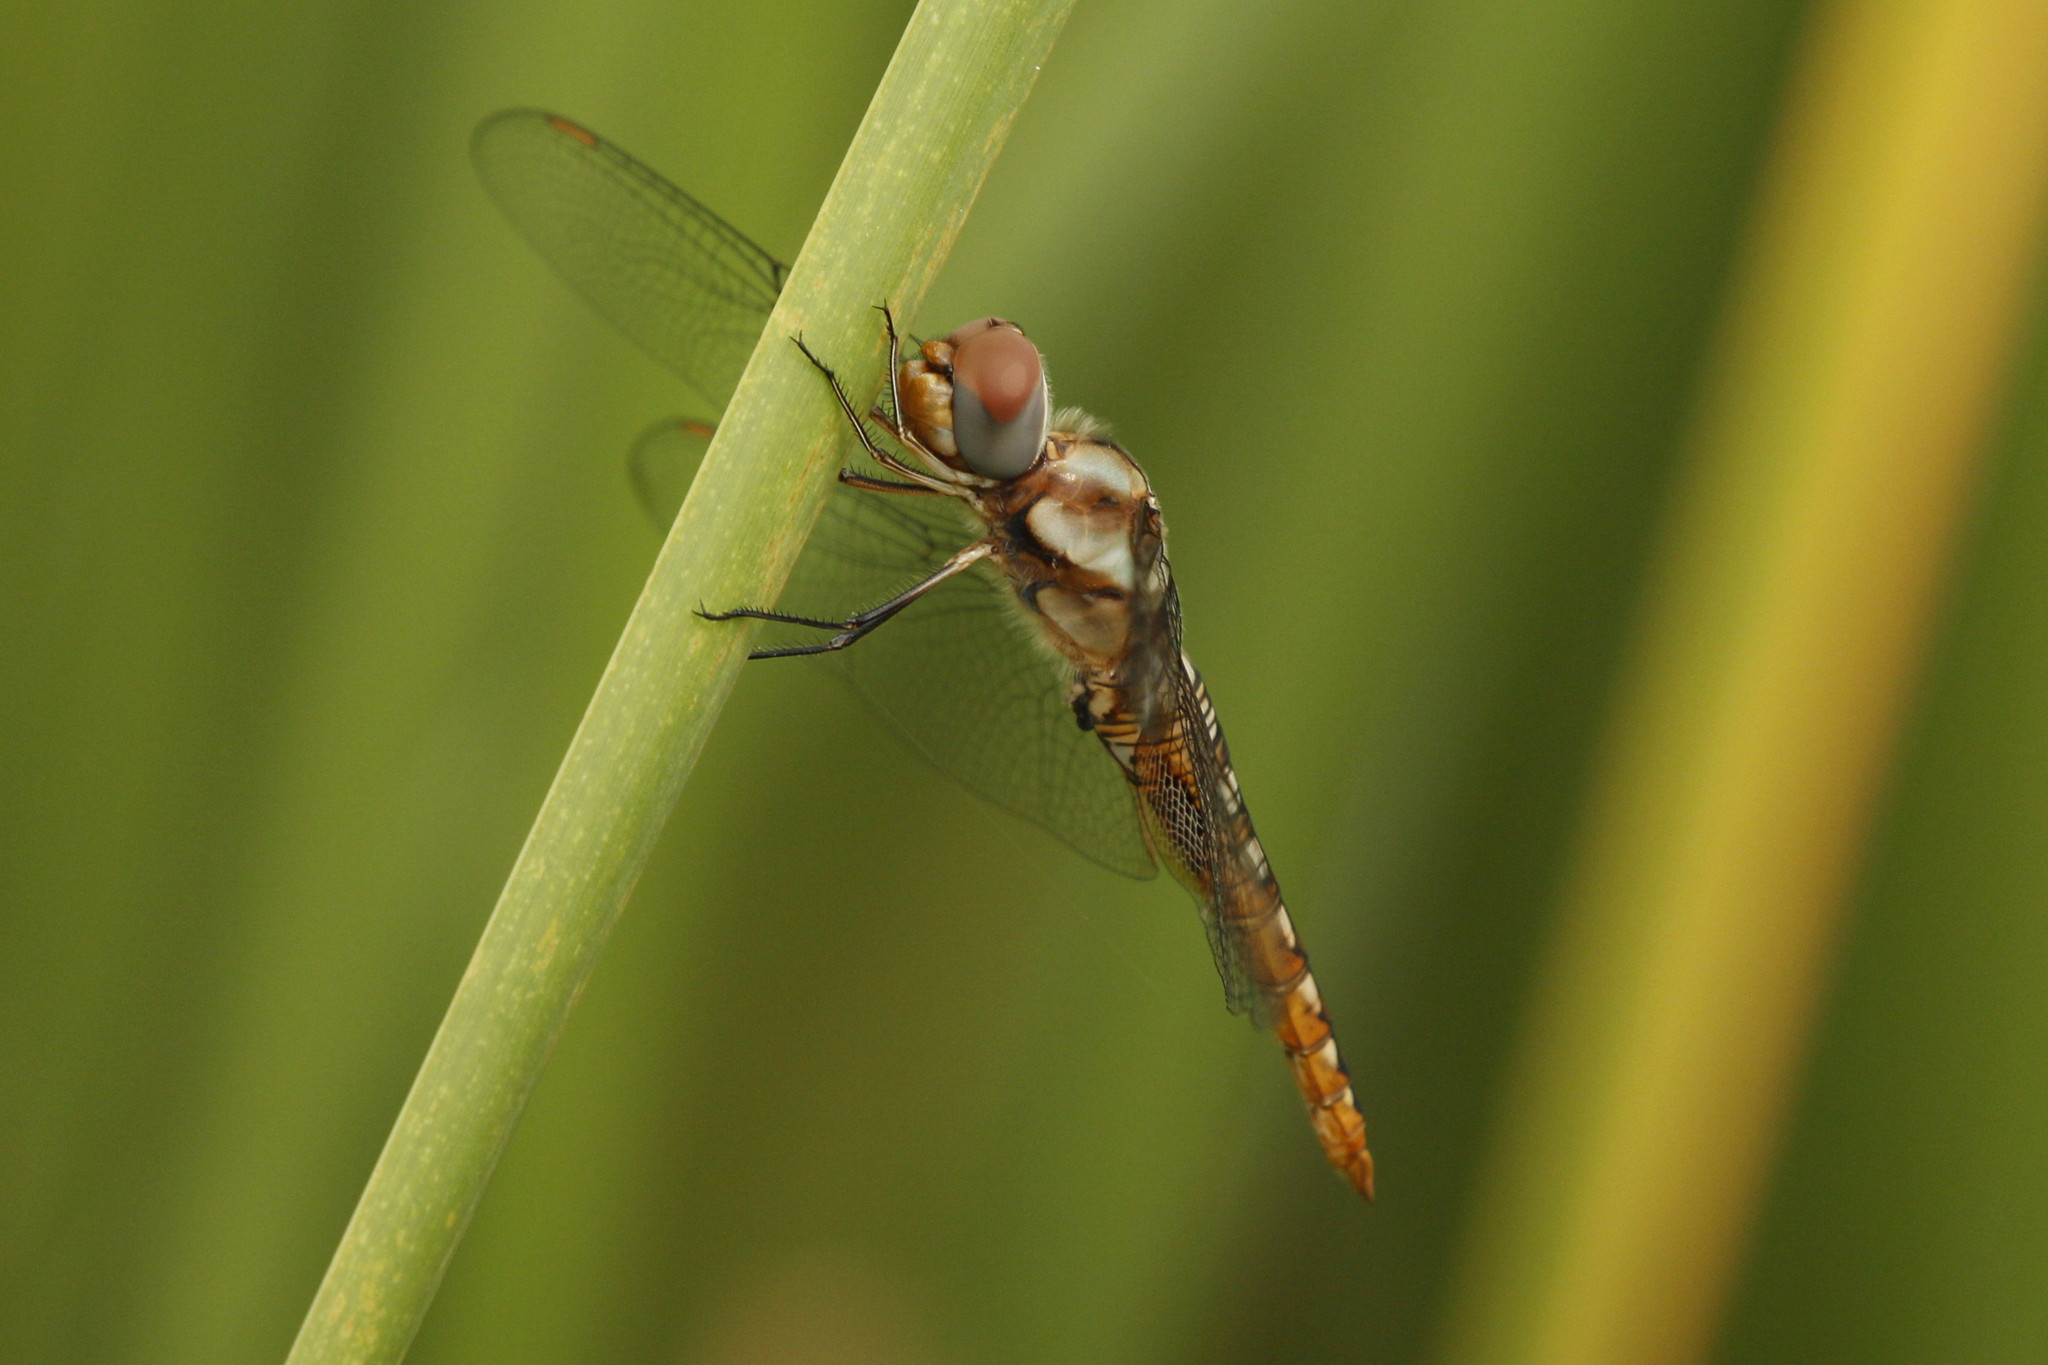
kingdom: Animalia
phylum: Arthropoda
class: Insecta
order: Odonata
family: Libellulidae
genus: Pantala
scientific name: Pantala hymenaea
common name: Spot-winged glider
